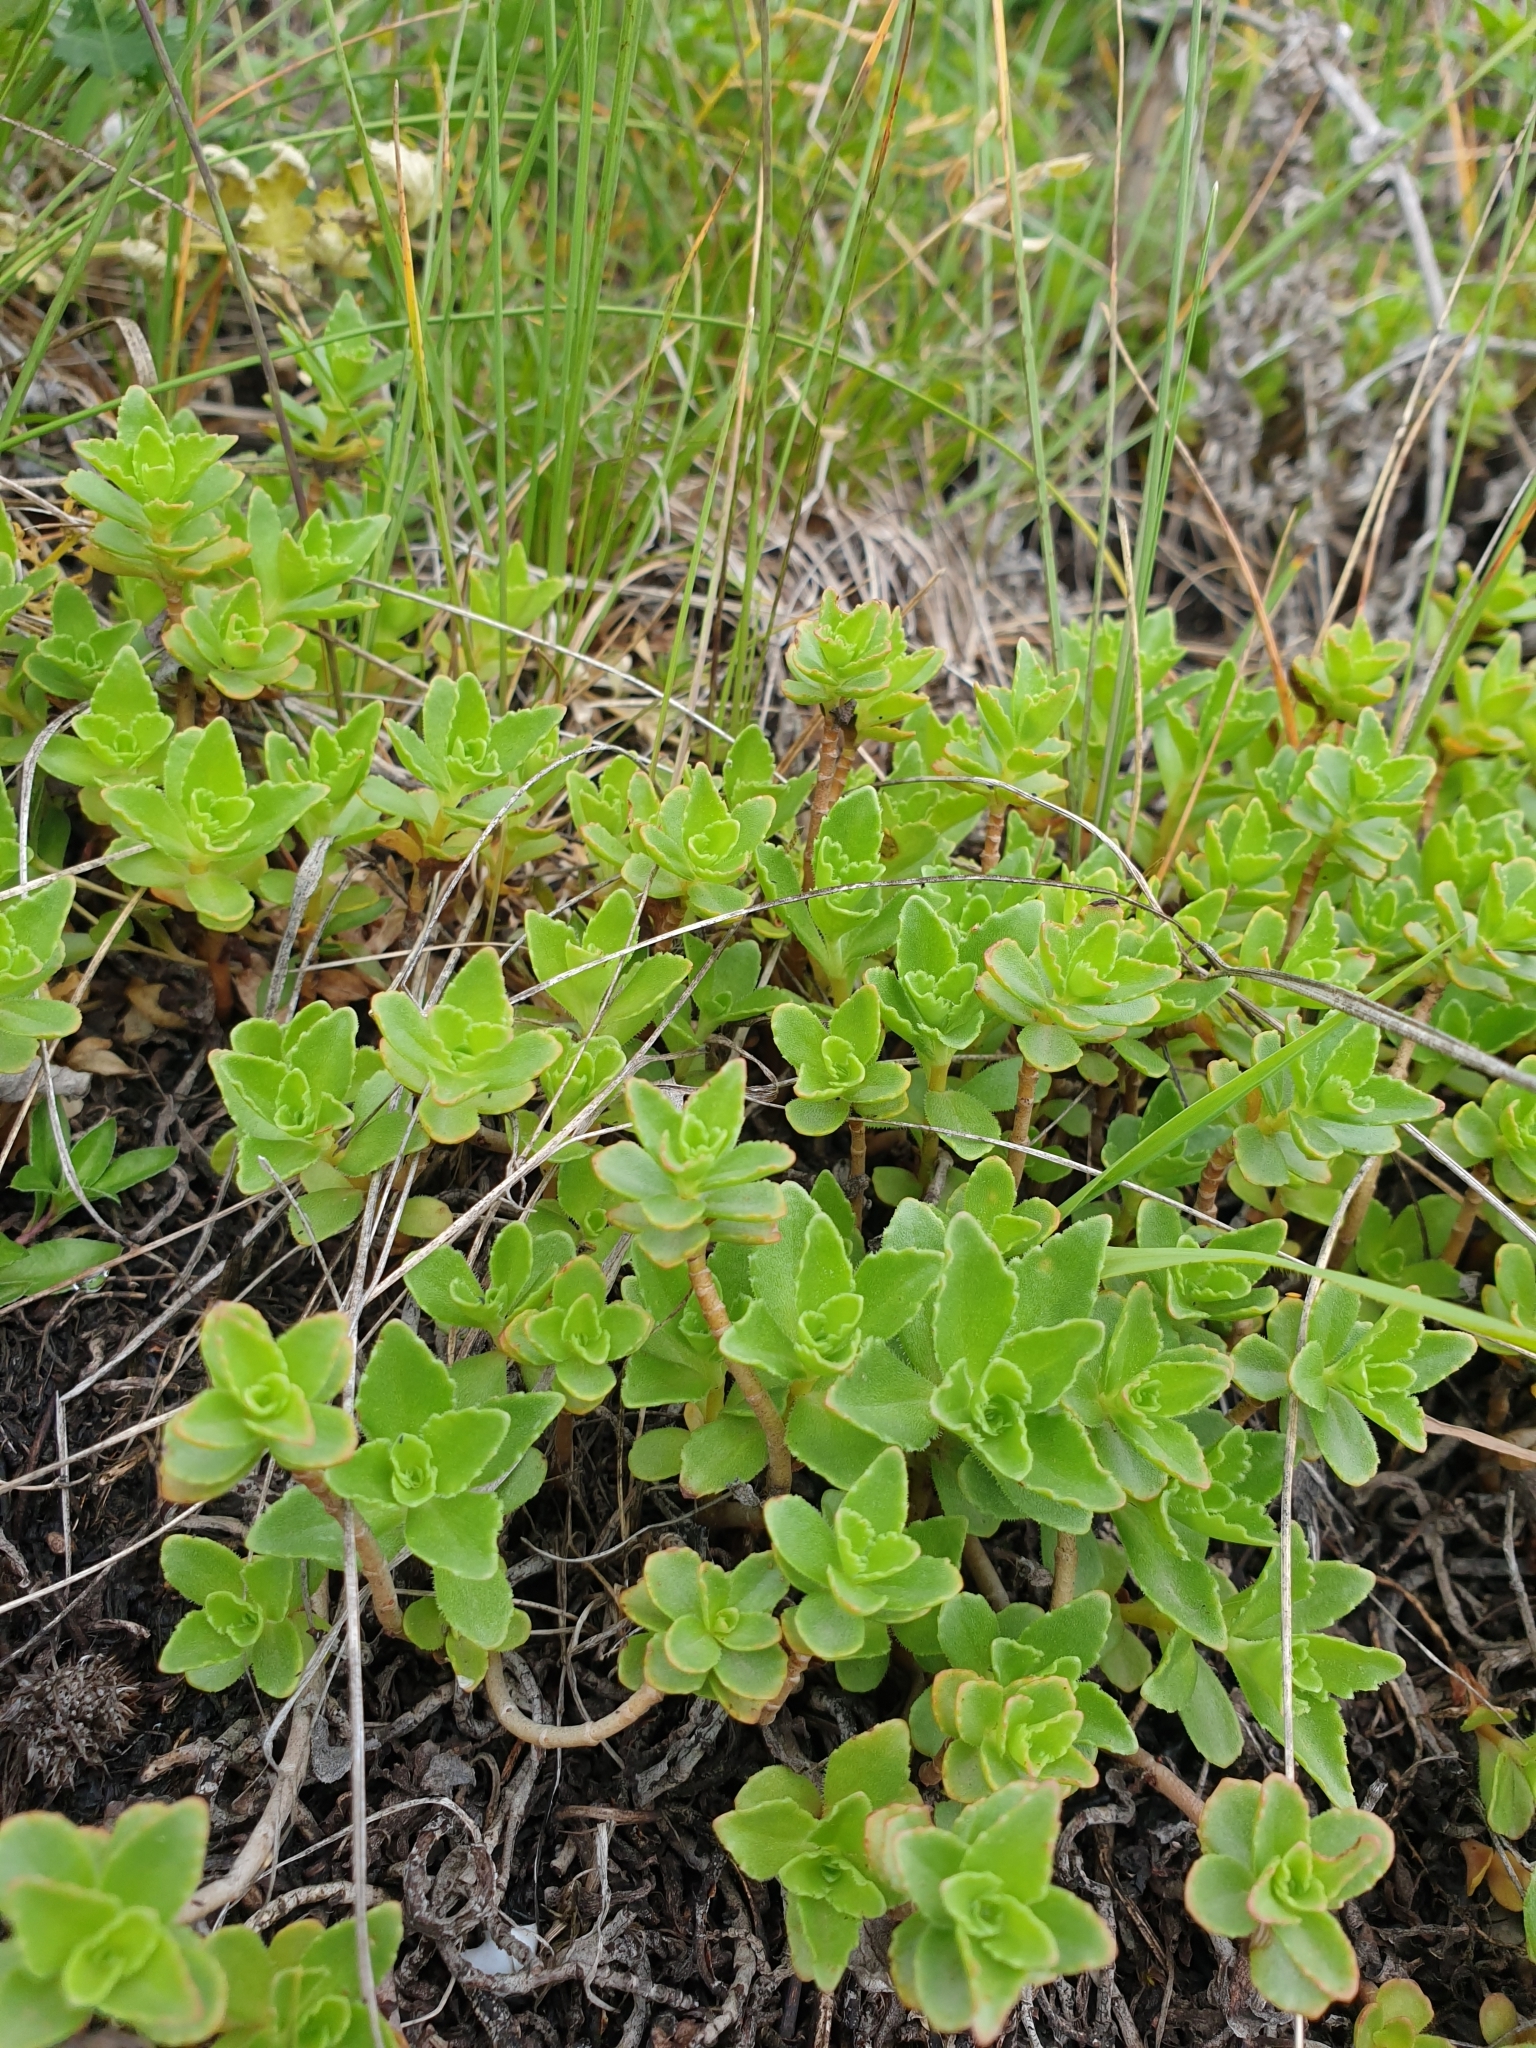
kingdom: Plantae
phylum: Tracheophyta
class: Magnoliopsida
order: Saxifragales
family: Crassulaceae
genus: Phedimus
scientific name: Phedimus spurius
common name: Caucasian stonecrop
